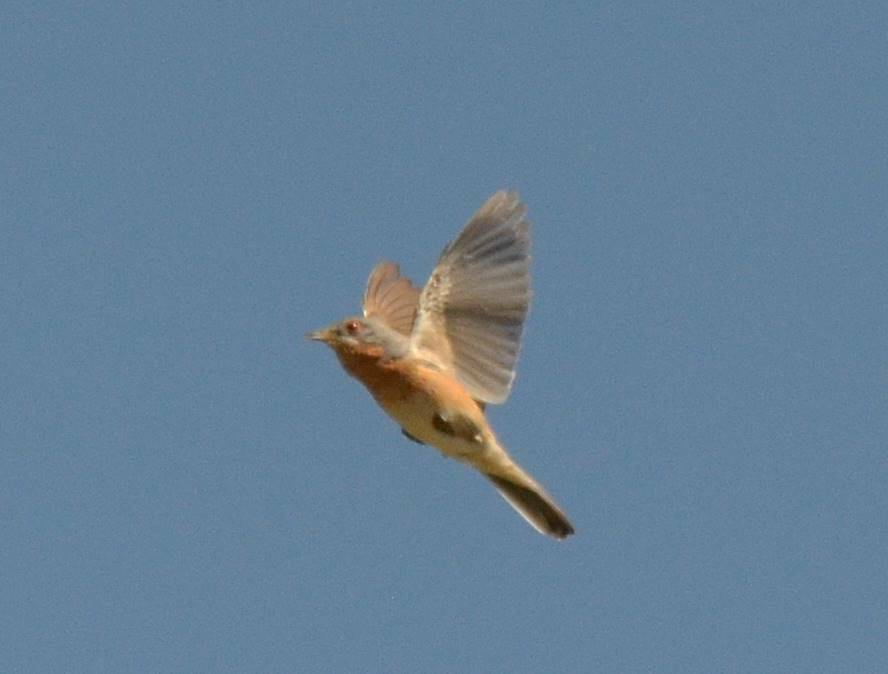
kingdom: Animalia
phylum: Chordata
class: Aves
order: Passeriformes
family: Sylviidae
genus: Sylvia
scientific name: Sylvia deserticola
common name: Tristram's warbler
